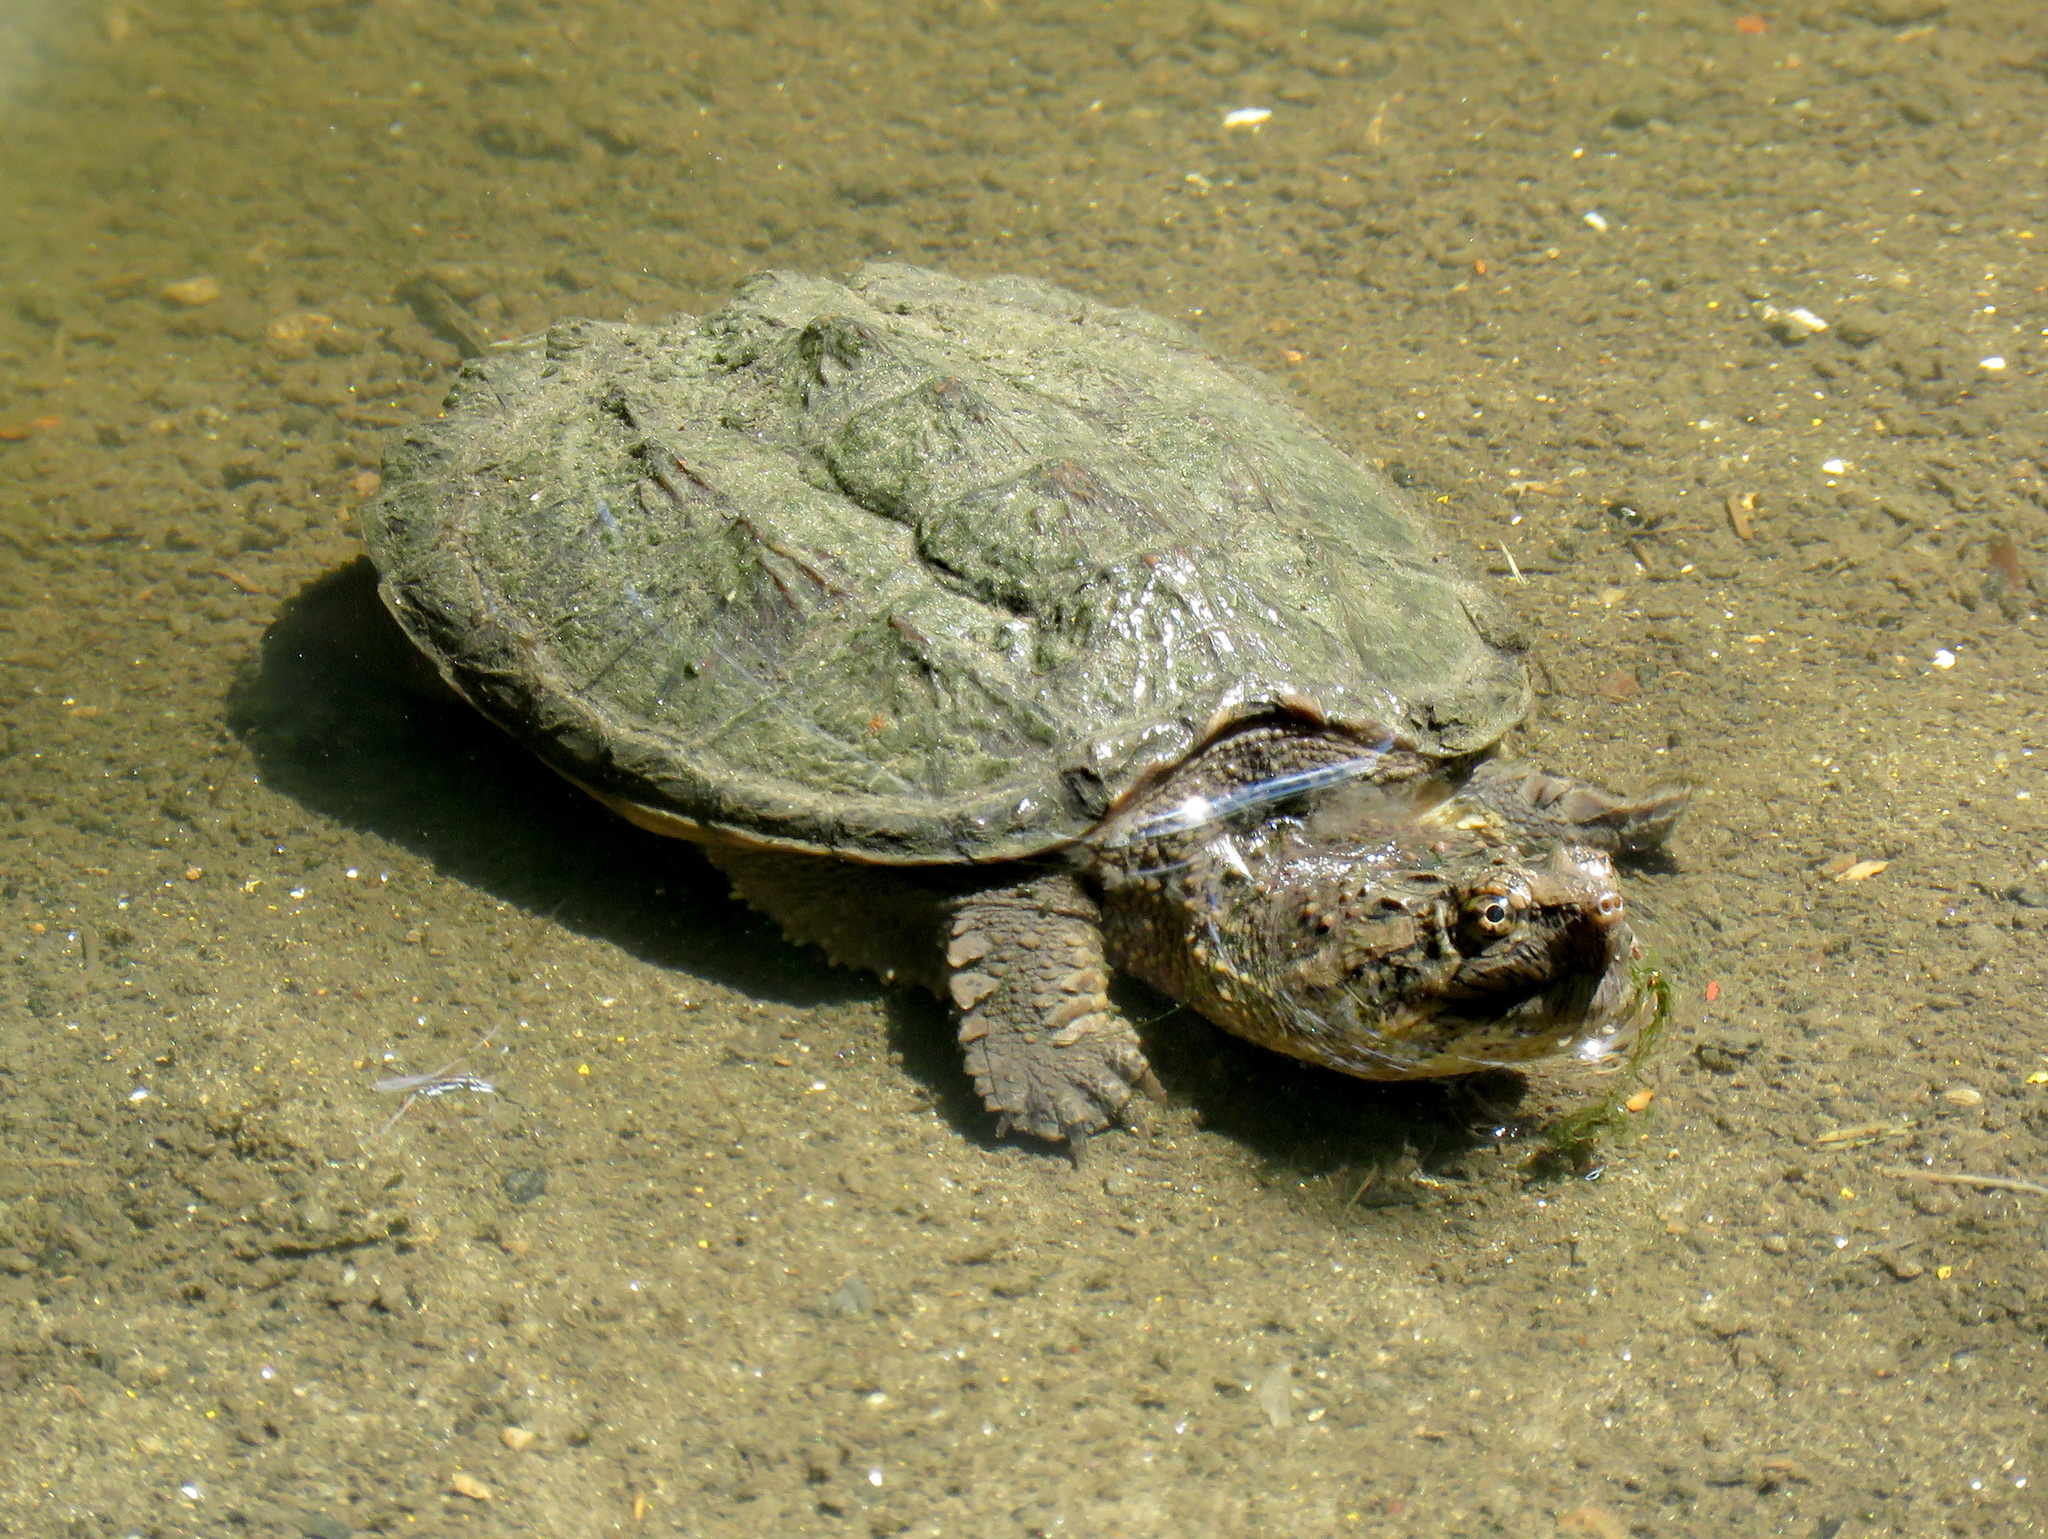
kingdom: Animalia
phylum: Chordata
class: Testudines
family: Chelydridae
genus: Chelydra
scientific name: Chelydra serpentina
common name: Common snapping turtle
